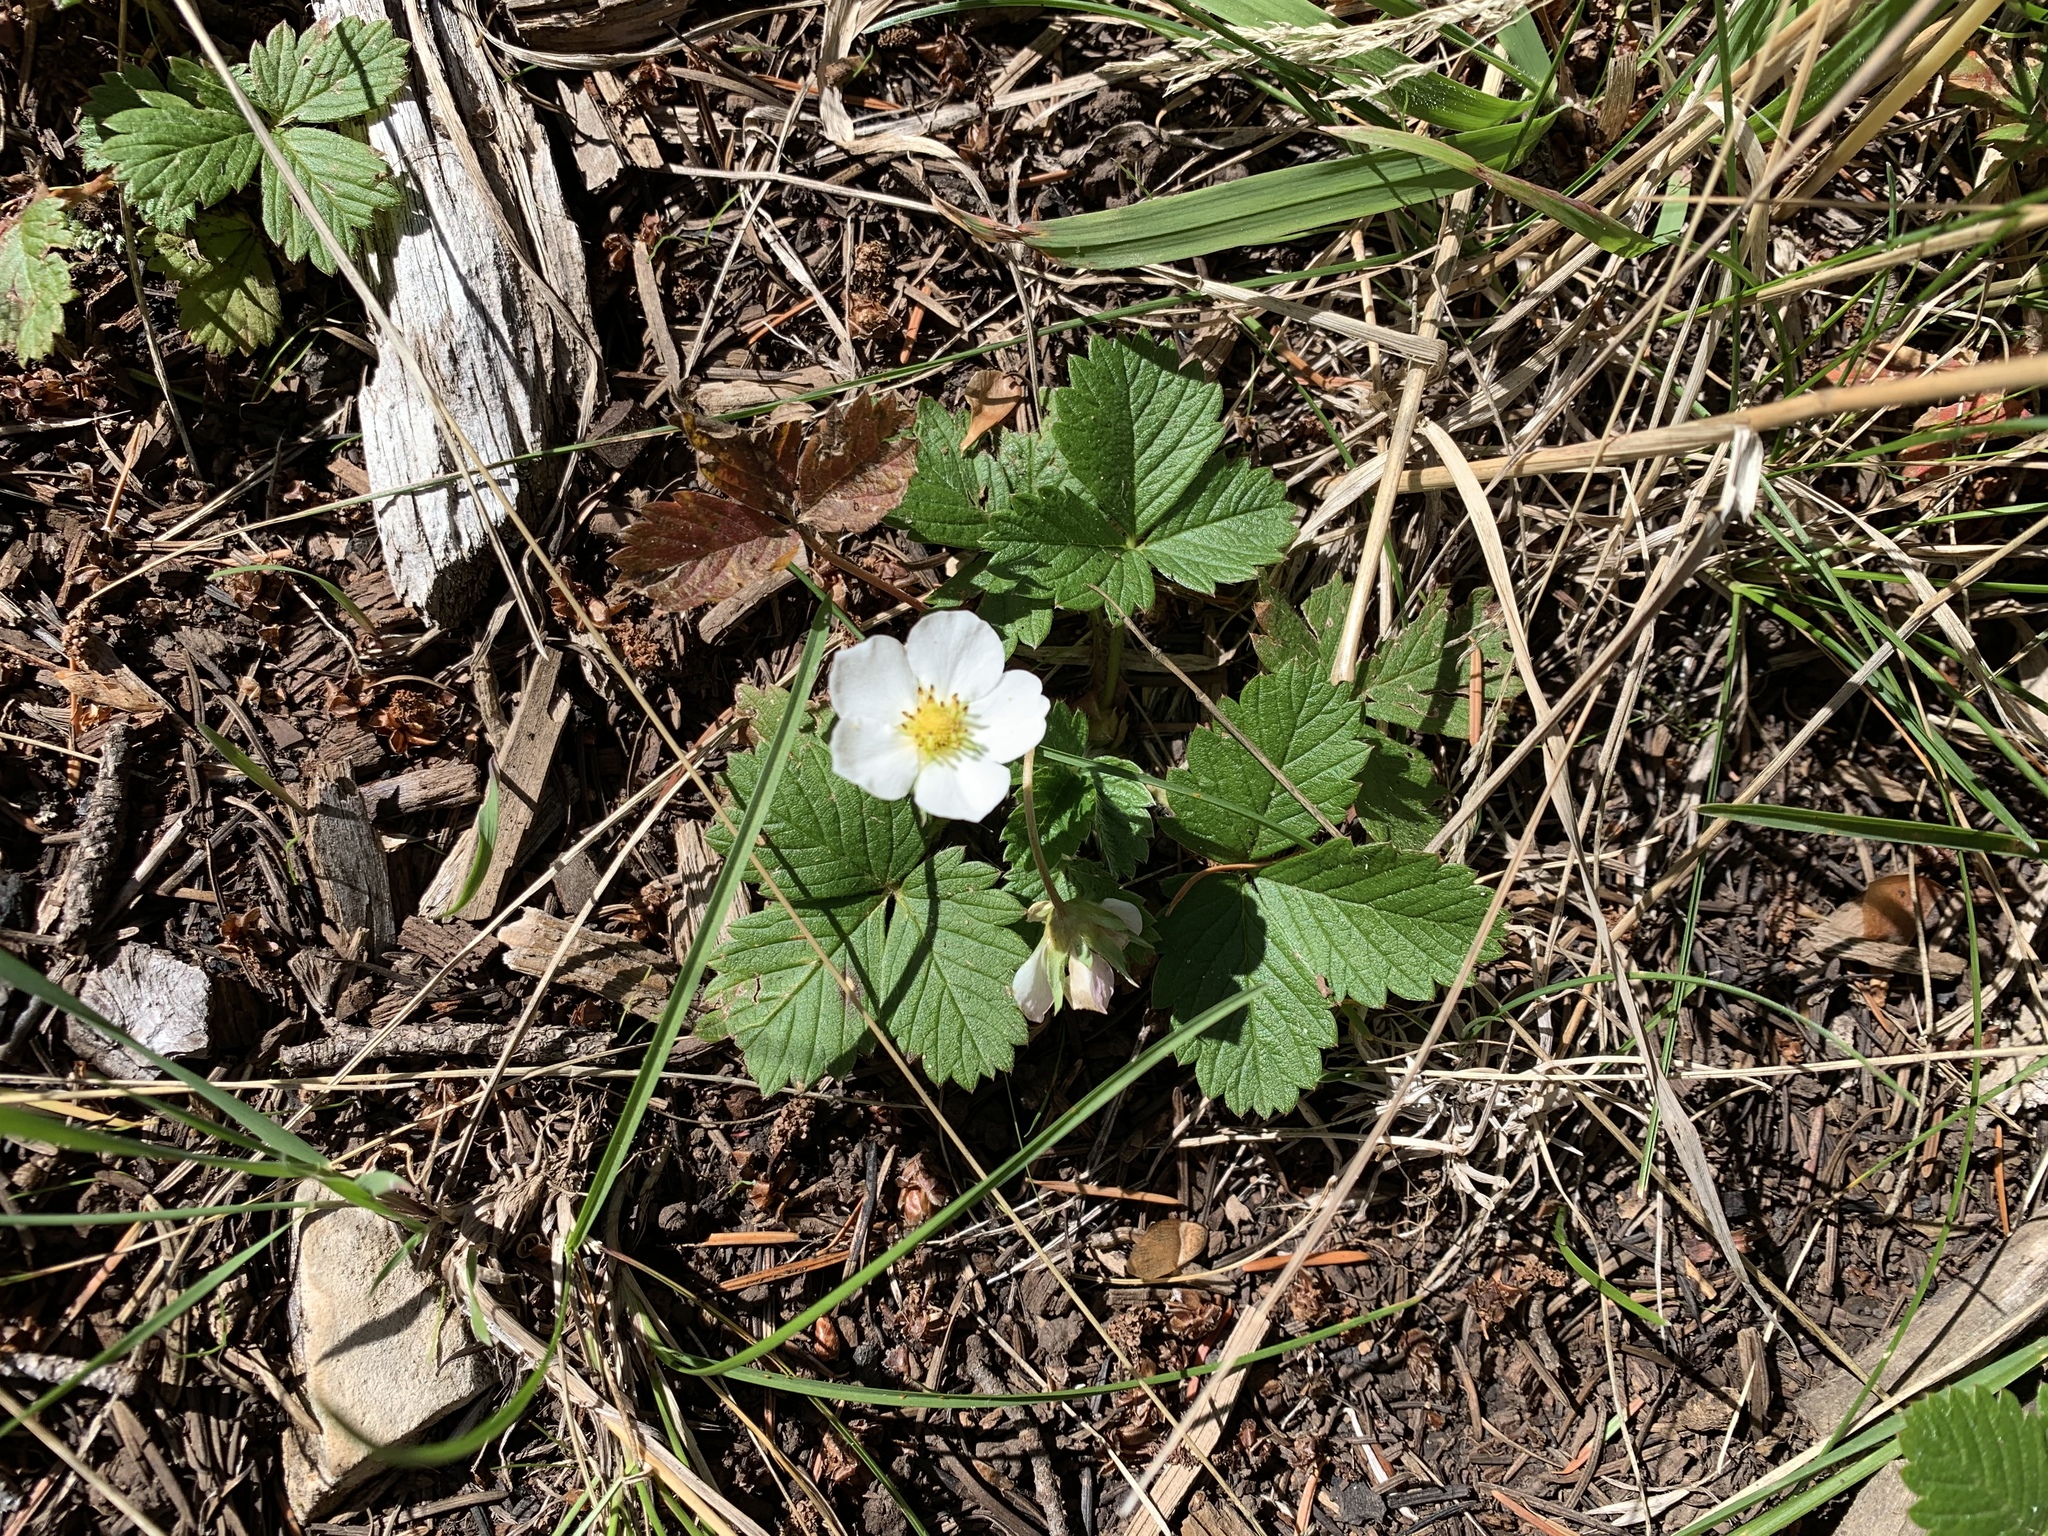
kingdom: Plantae
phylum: Tracheophyta
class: Magnoliopsida
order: Rosales
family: Rosaceae
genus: Fragaria
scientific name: Fragaria vesca
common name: Wild strawberry
